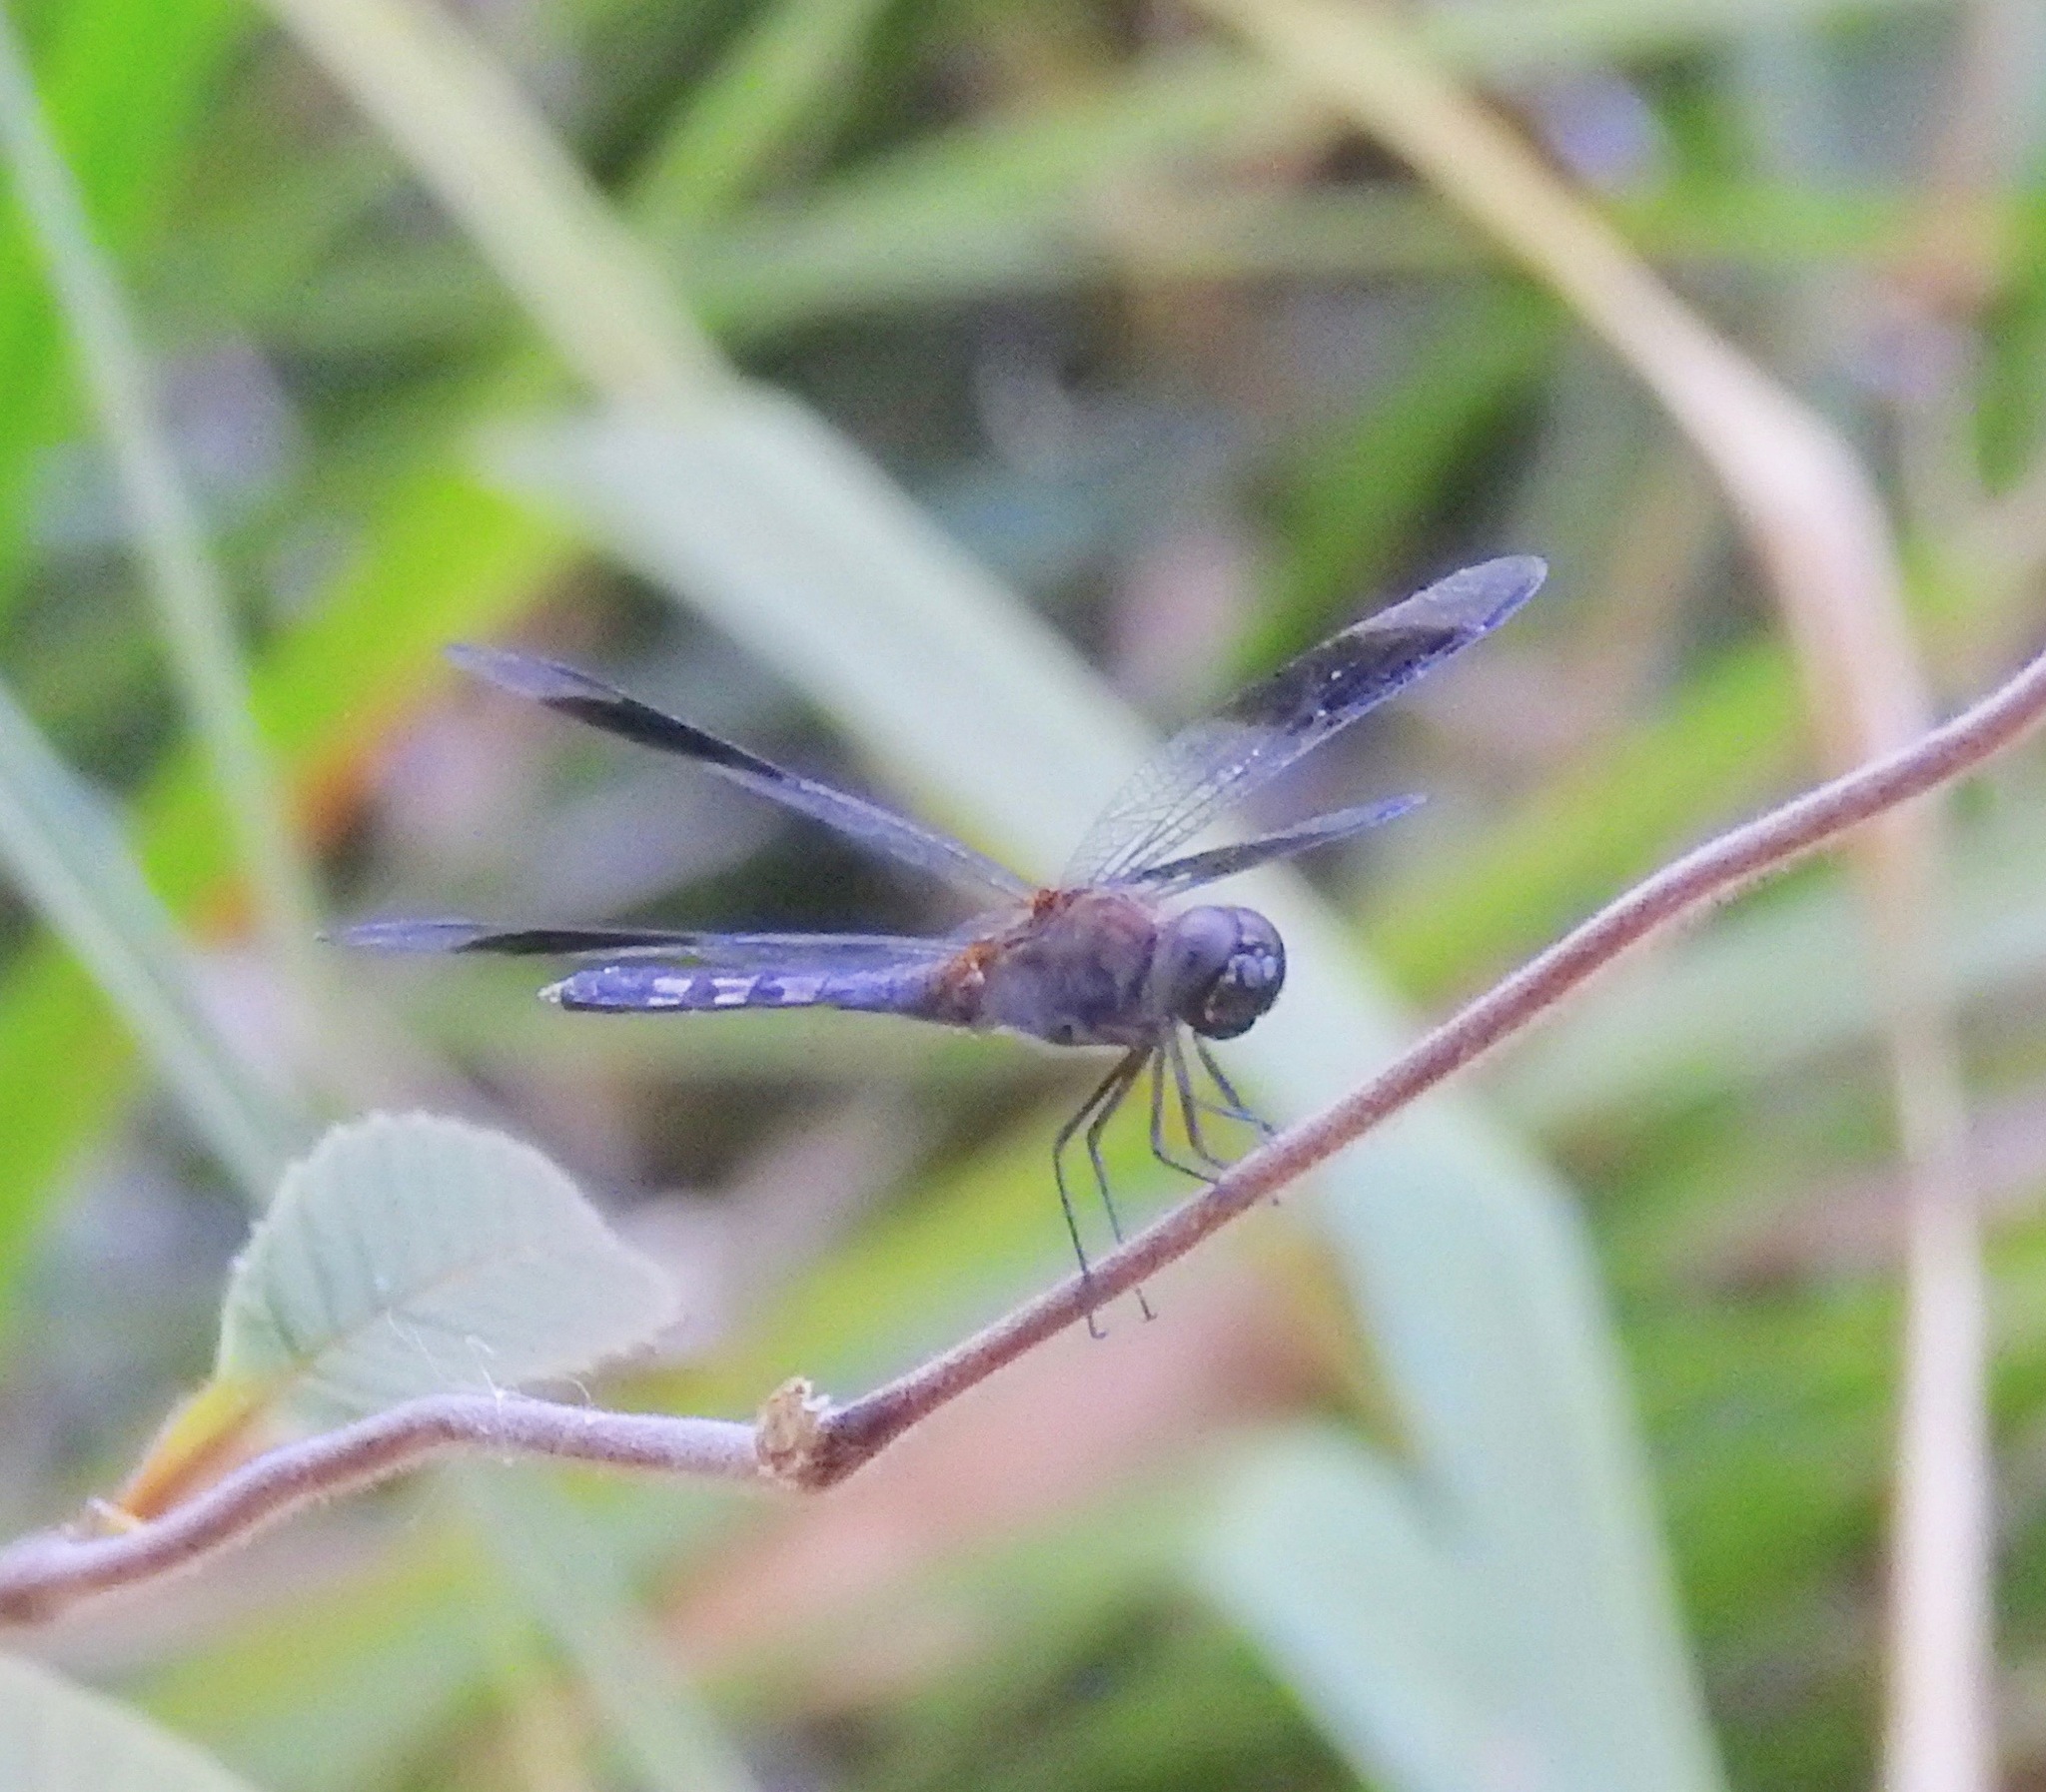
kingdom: Animalia
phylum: Arthropoda
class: Insecta
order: Odonata
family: Libellulidae
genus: Erythrodiplax
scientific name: Erythrodiplax umbrata
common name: Band-winged dragonlet
